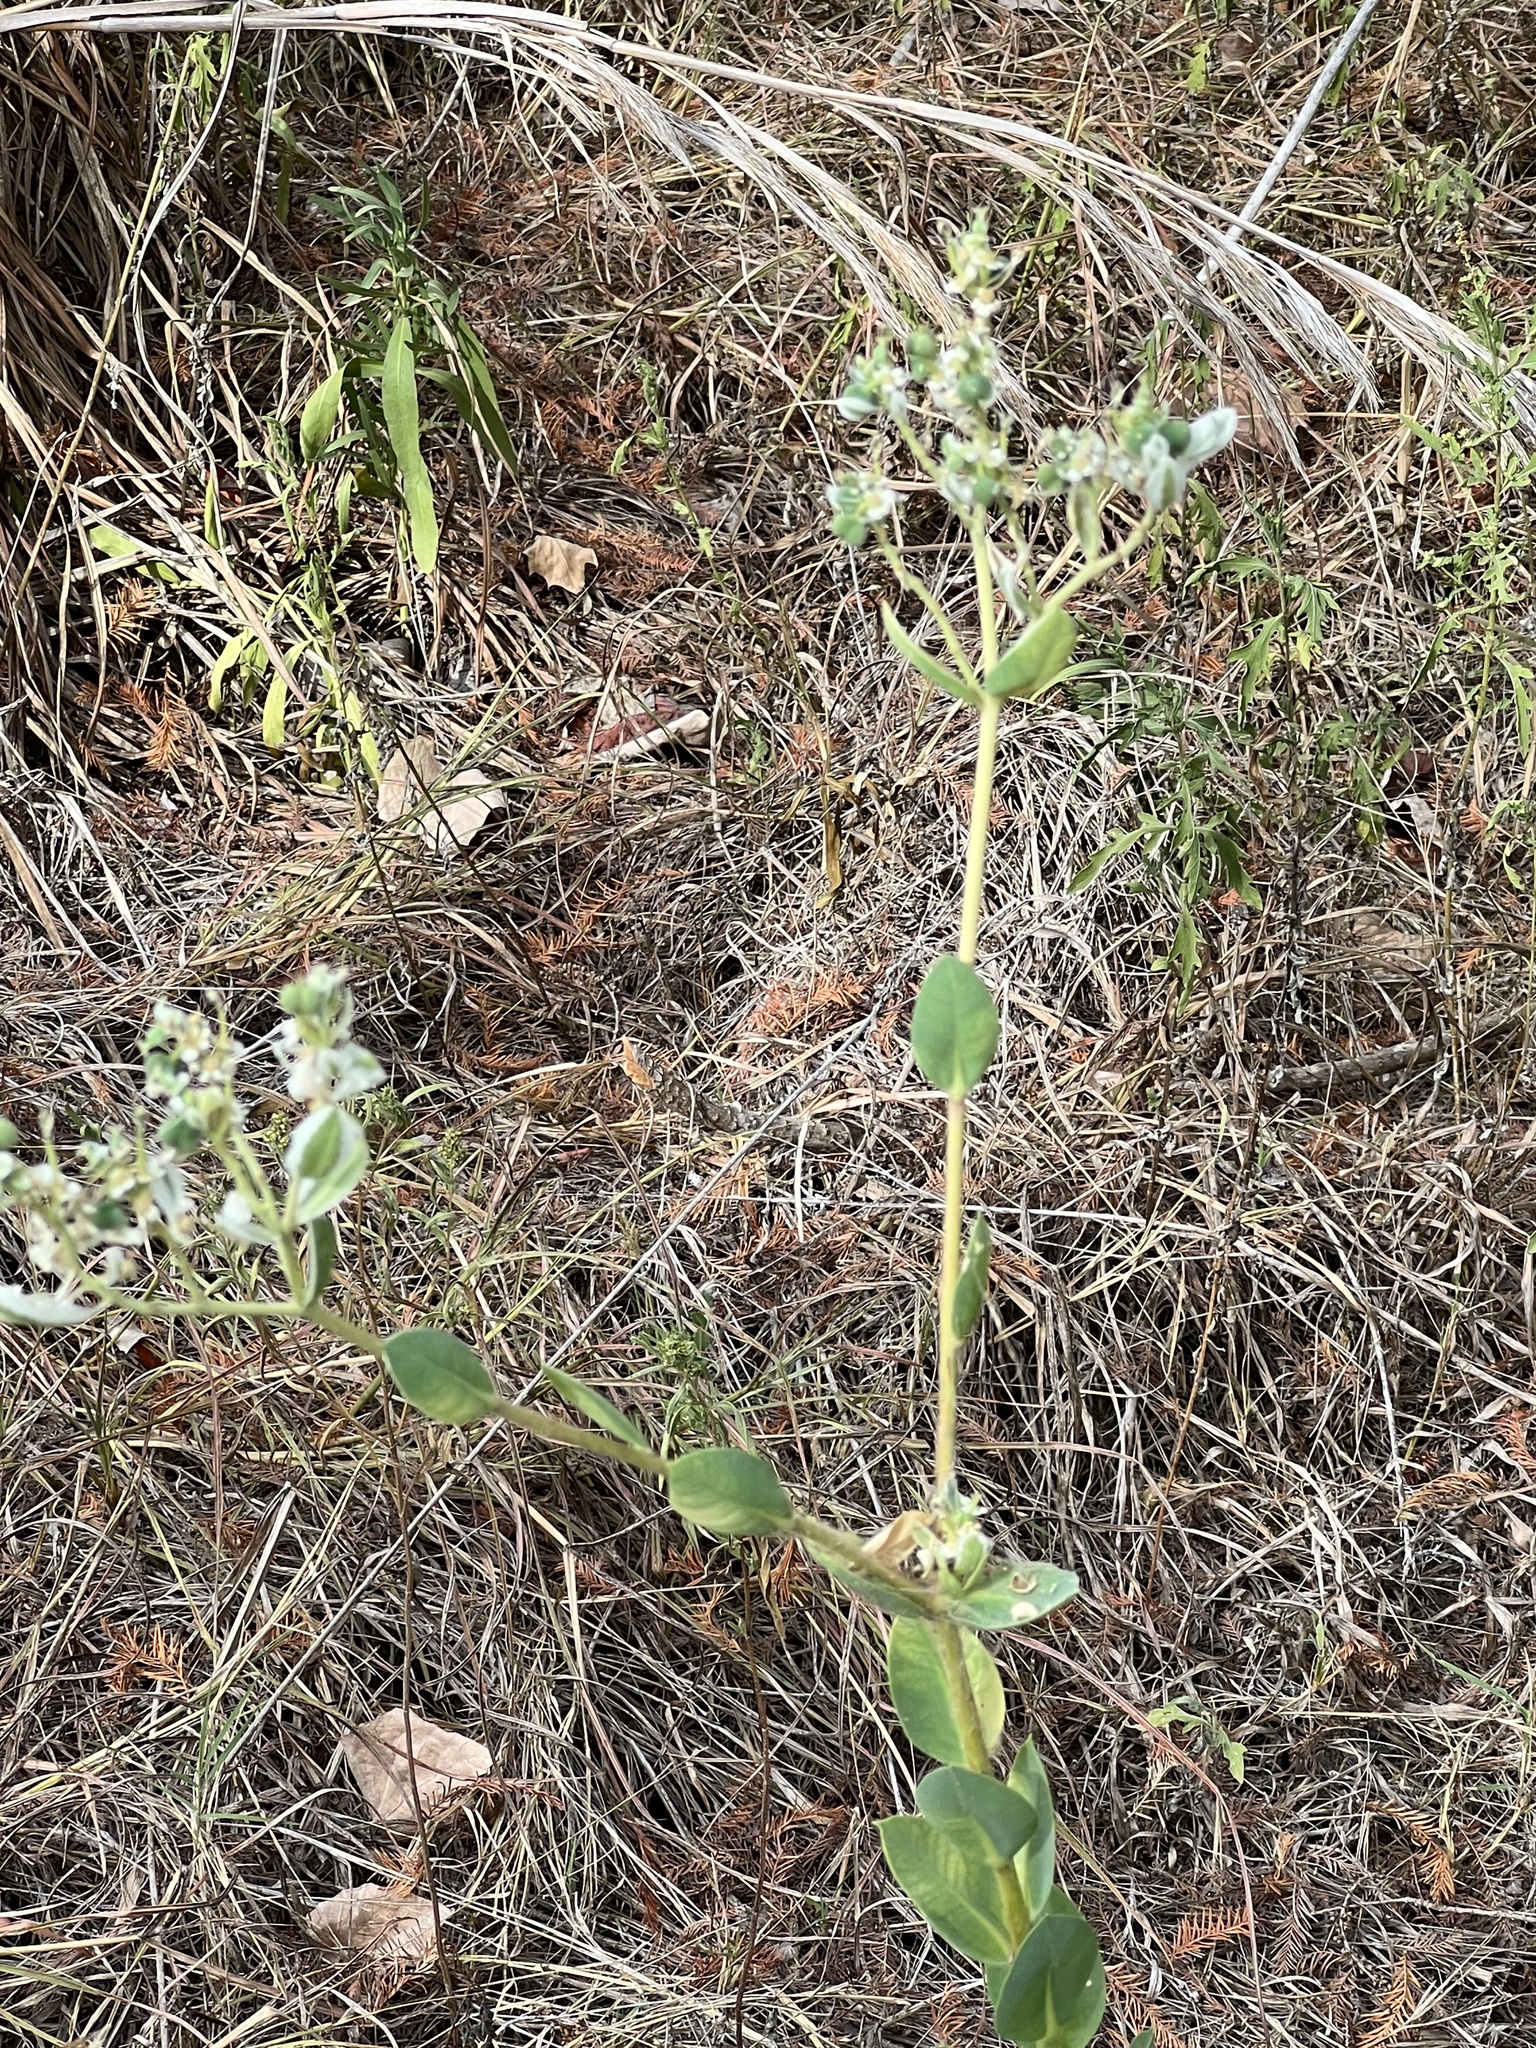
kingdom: Plantae
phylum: Tracheophyta
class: Magnoliopsida
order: Malpighiales
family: Euphorbiaceae
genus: Euphorbia
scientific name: Euphorbia marginata
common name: Ghostweed
